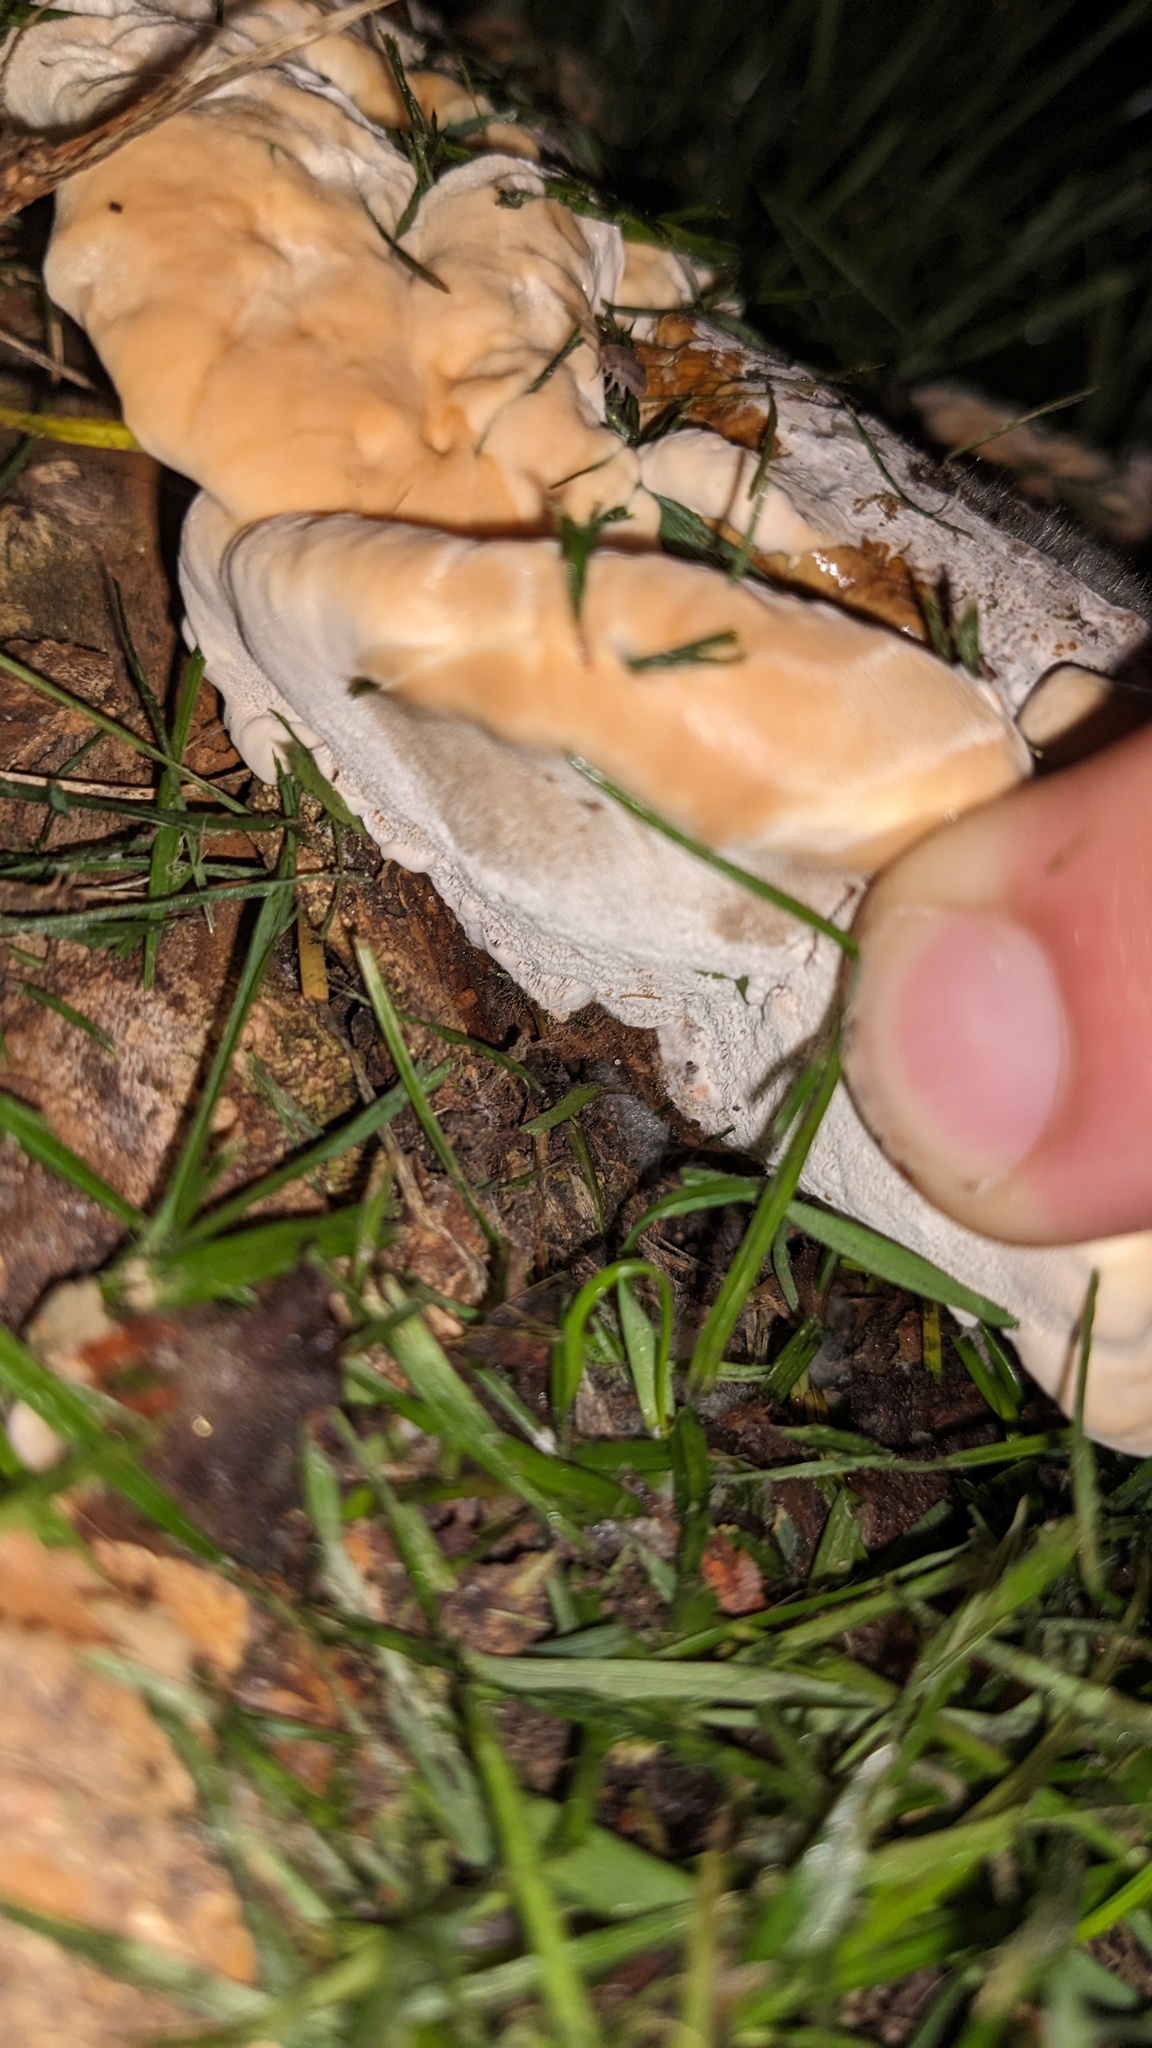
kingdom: Fungi
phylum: Basidiomycota
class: Agaricomycetes
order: Polyporales
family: Polyporaceae
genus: Ganoderma
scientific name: Ganoderma resinaceum
